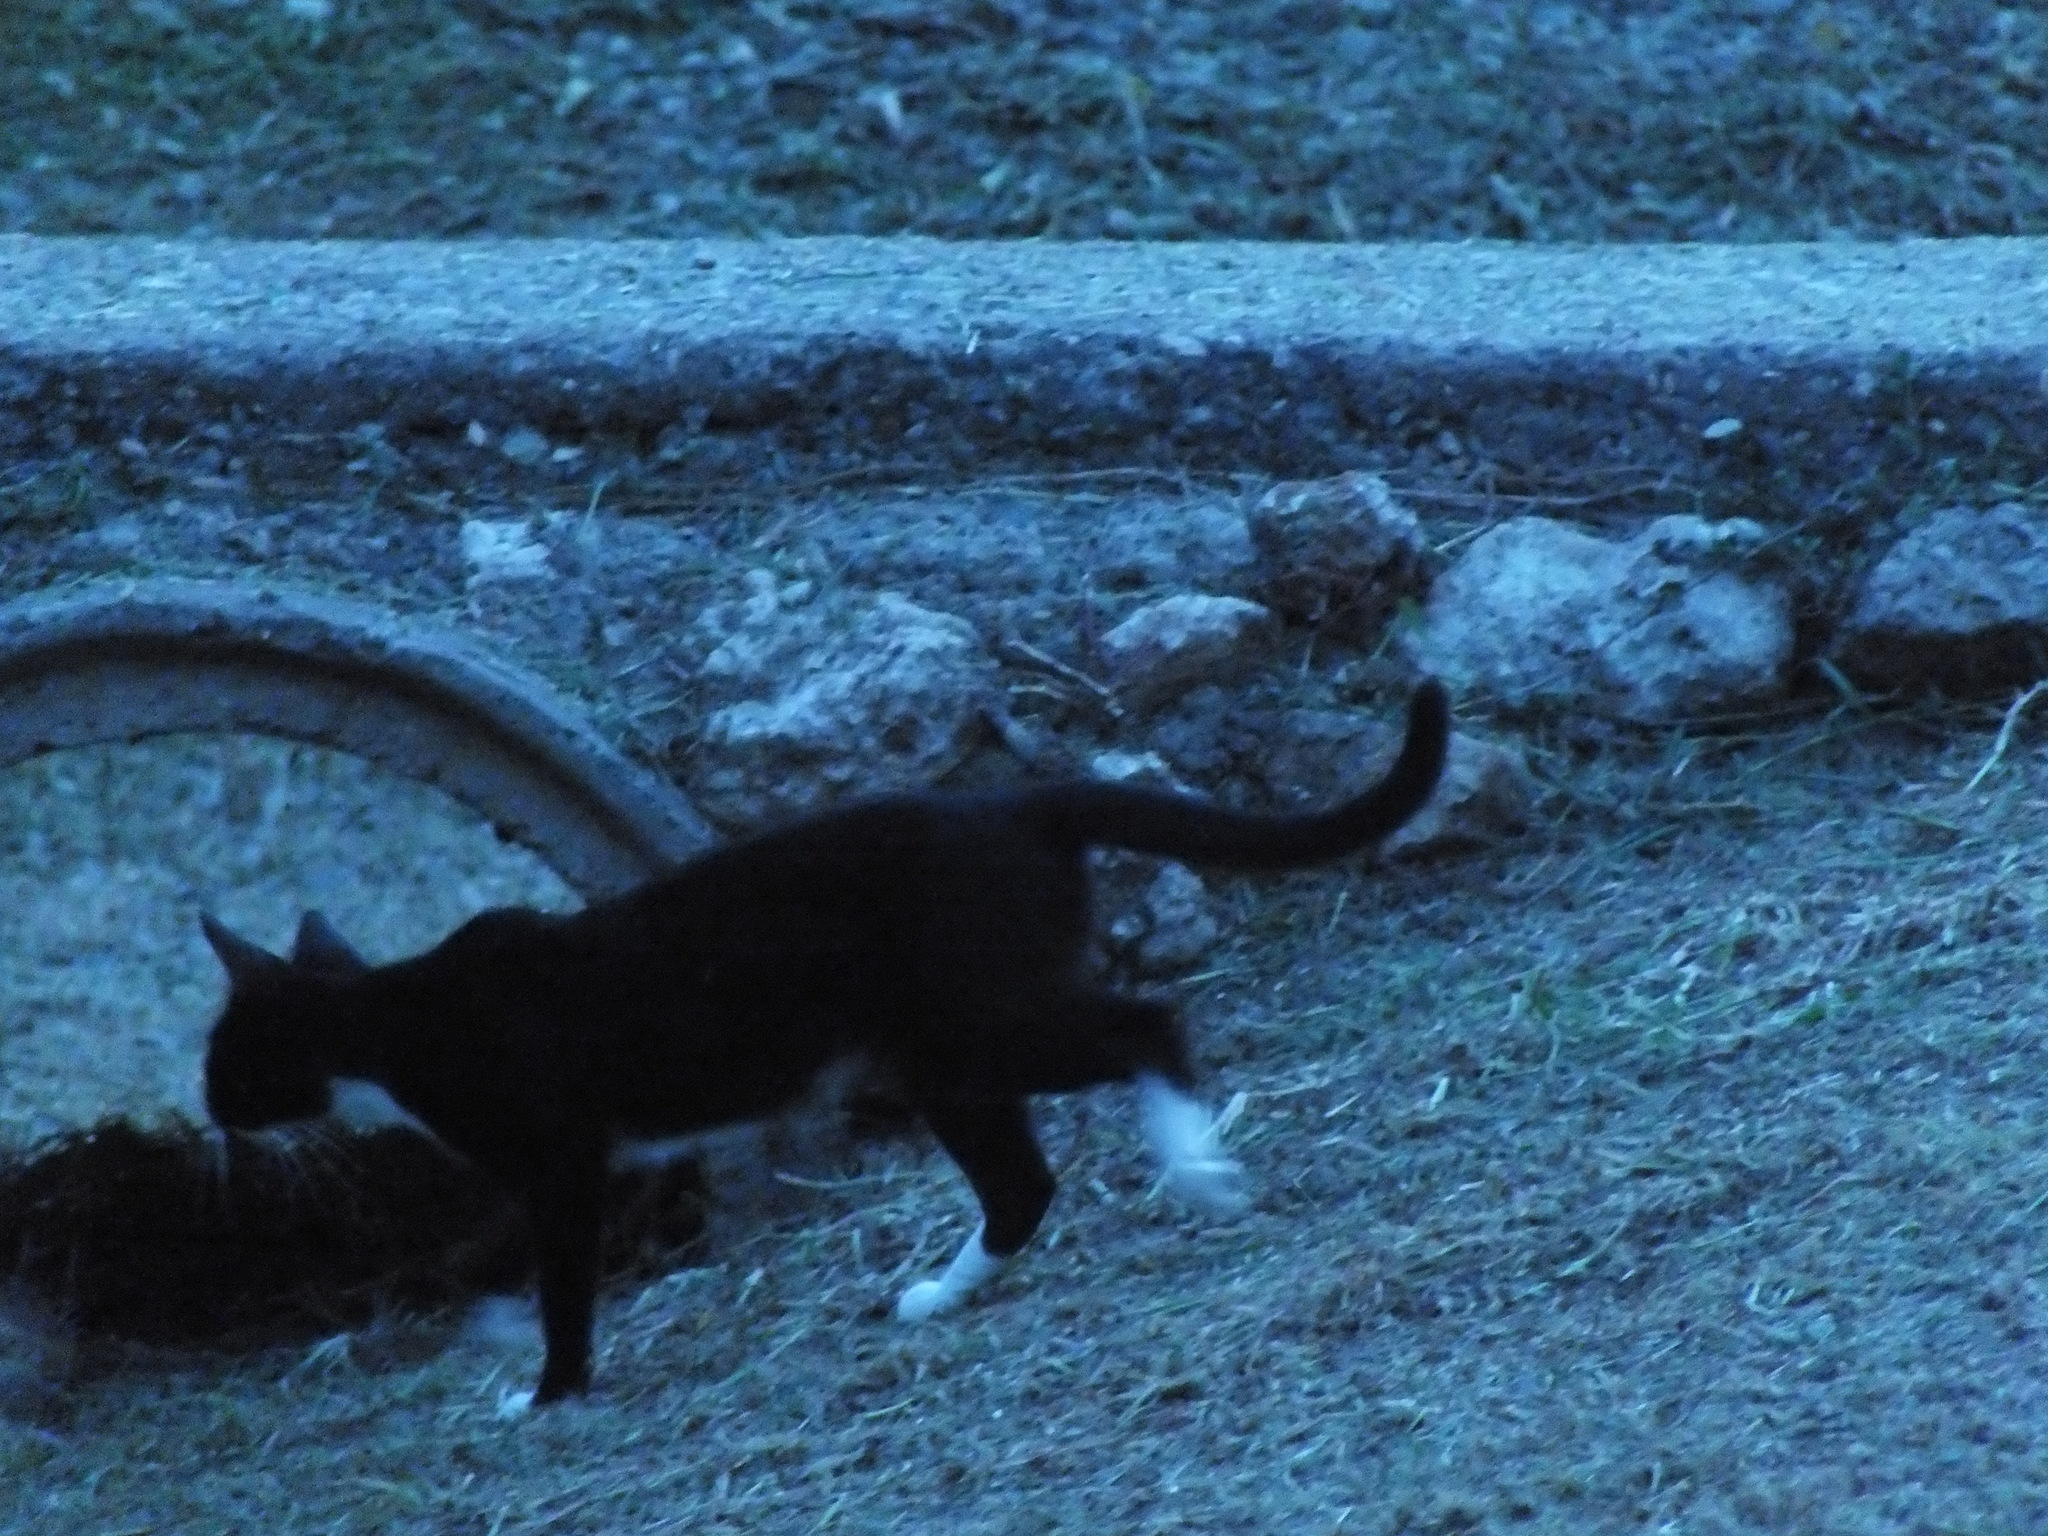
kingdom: Animalia
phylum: Chordata
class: Mammalia
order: Carnivora
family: Felidae
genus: Felis
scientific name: Felis catus
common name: Domestic cat
